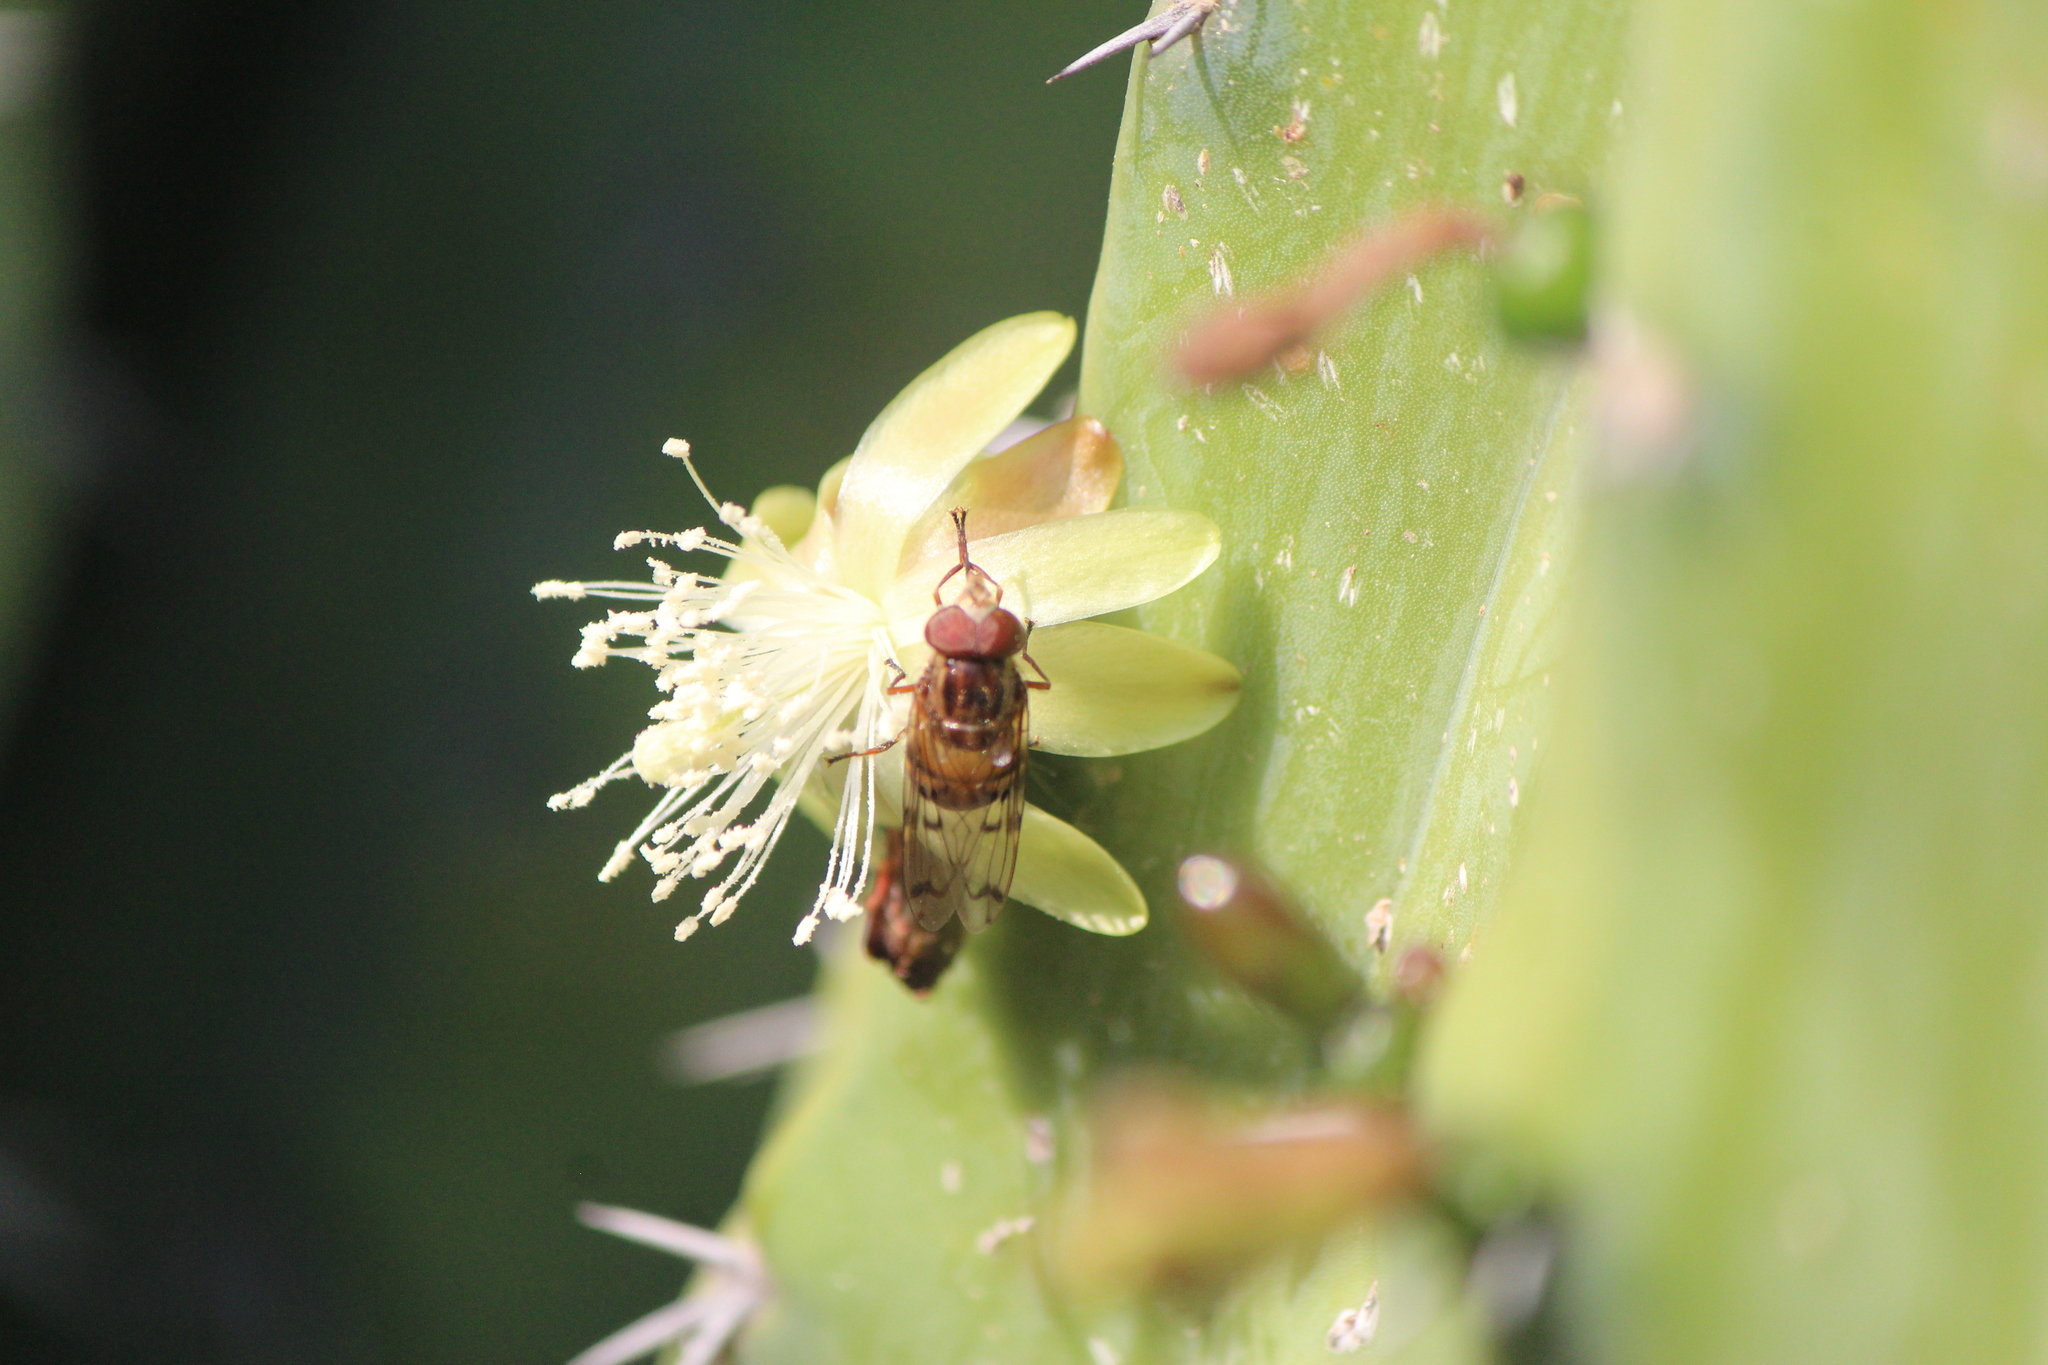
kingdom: Animalia
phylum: Arthropoda
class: Insecta
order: Diptera
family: Syrphidae
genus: Copestylum
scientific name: Copestylum opinator
